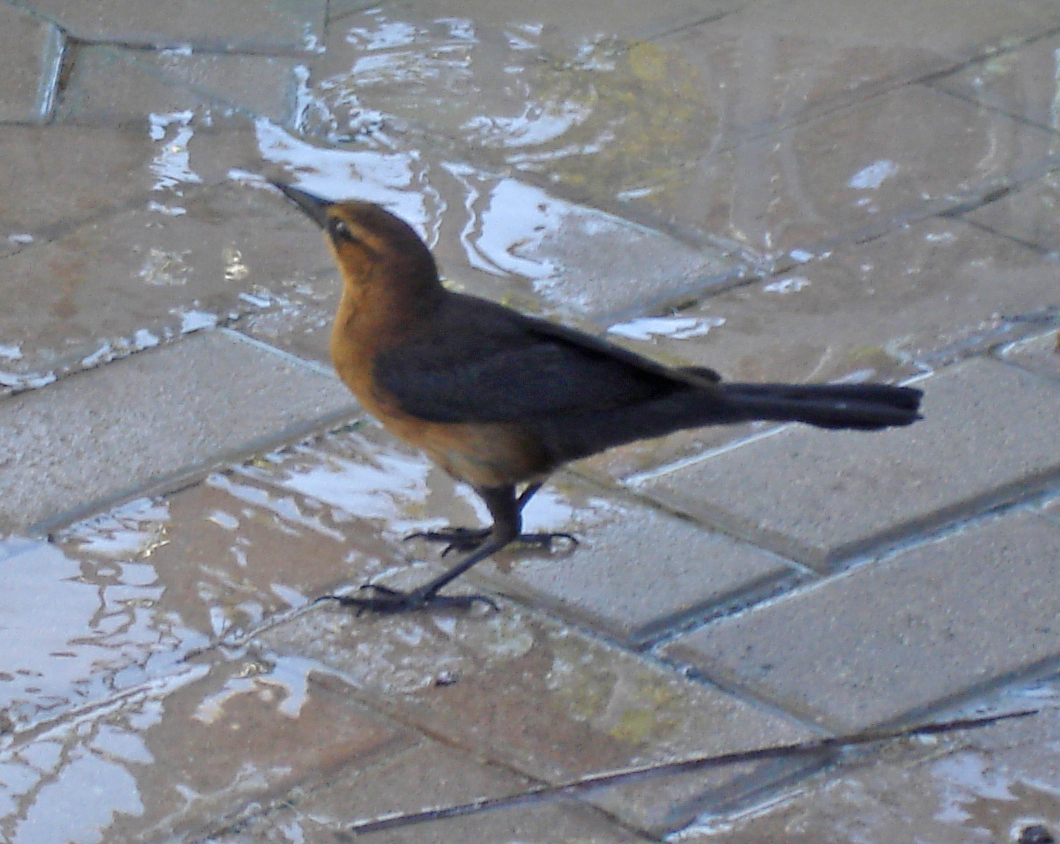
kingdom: Animalia
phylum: Chordata
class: Aves
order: Passeriformes
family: Icteridae
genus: Quiscalus
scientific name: Quiscalus major
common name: Boat-tailed grackle
